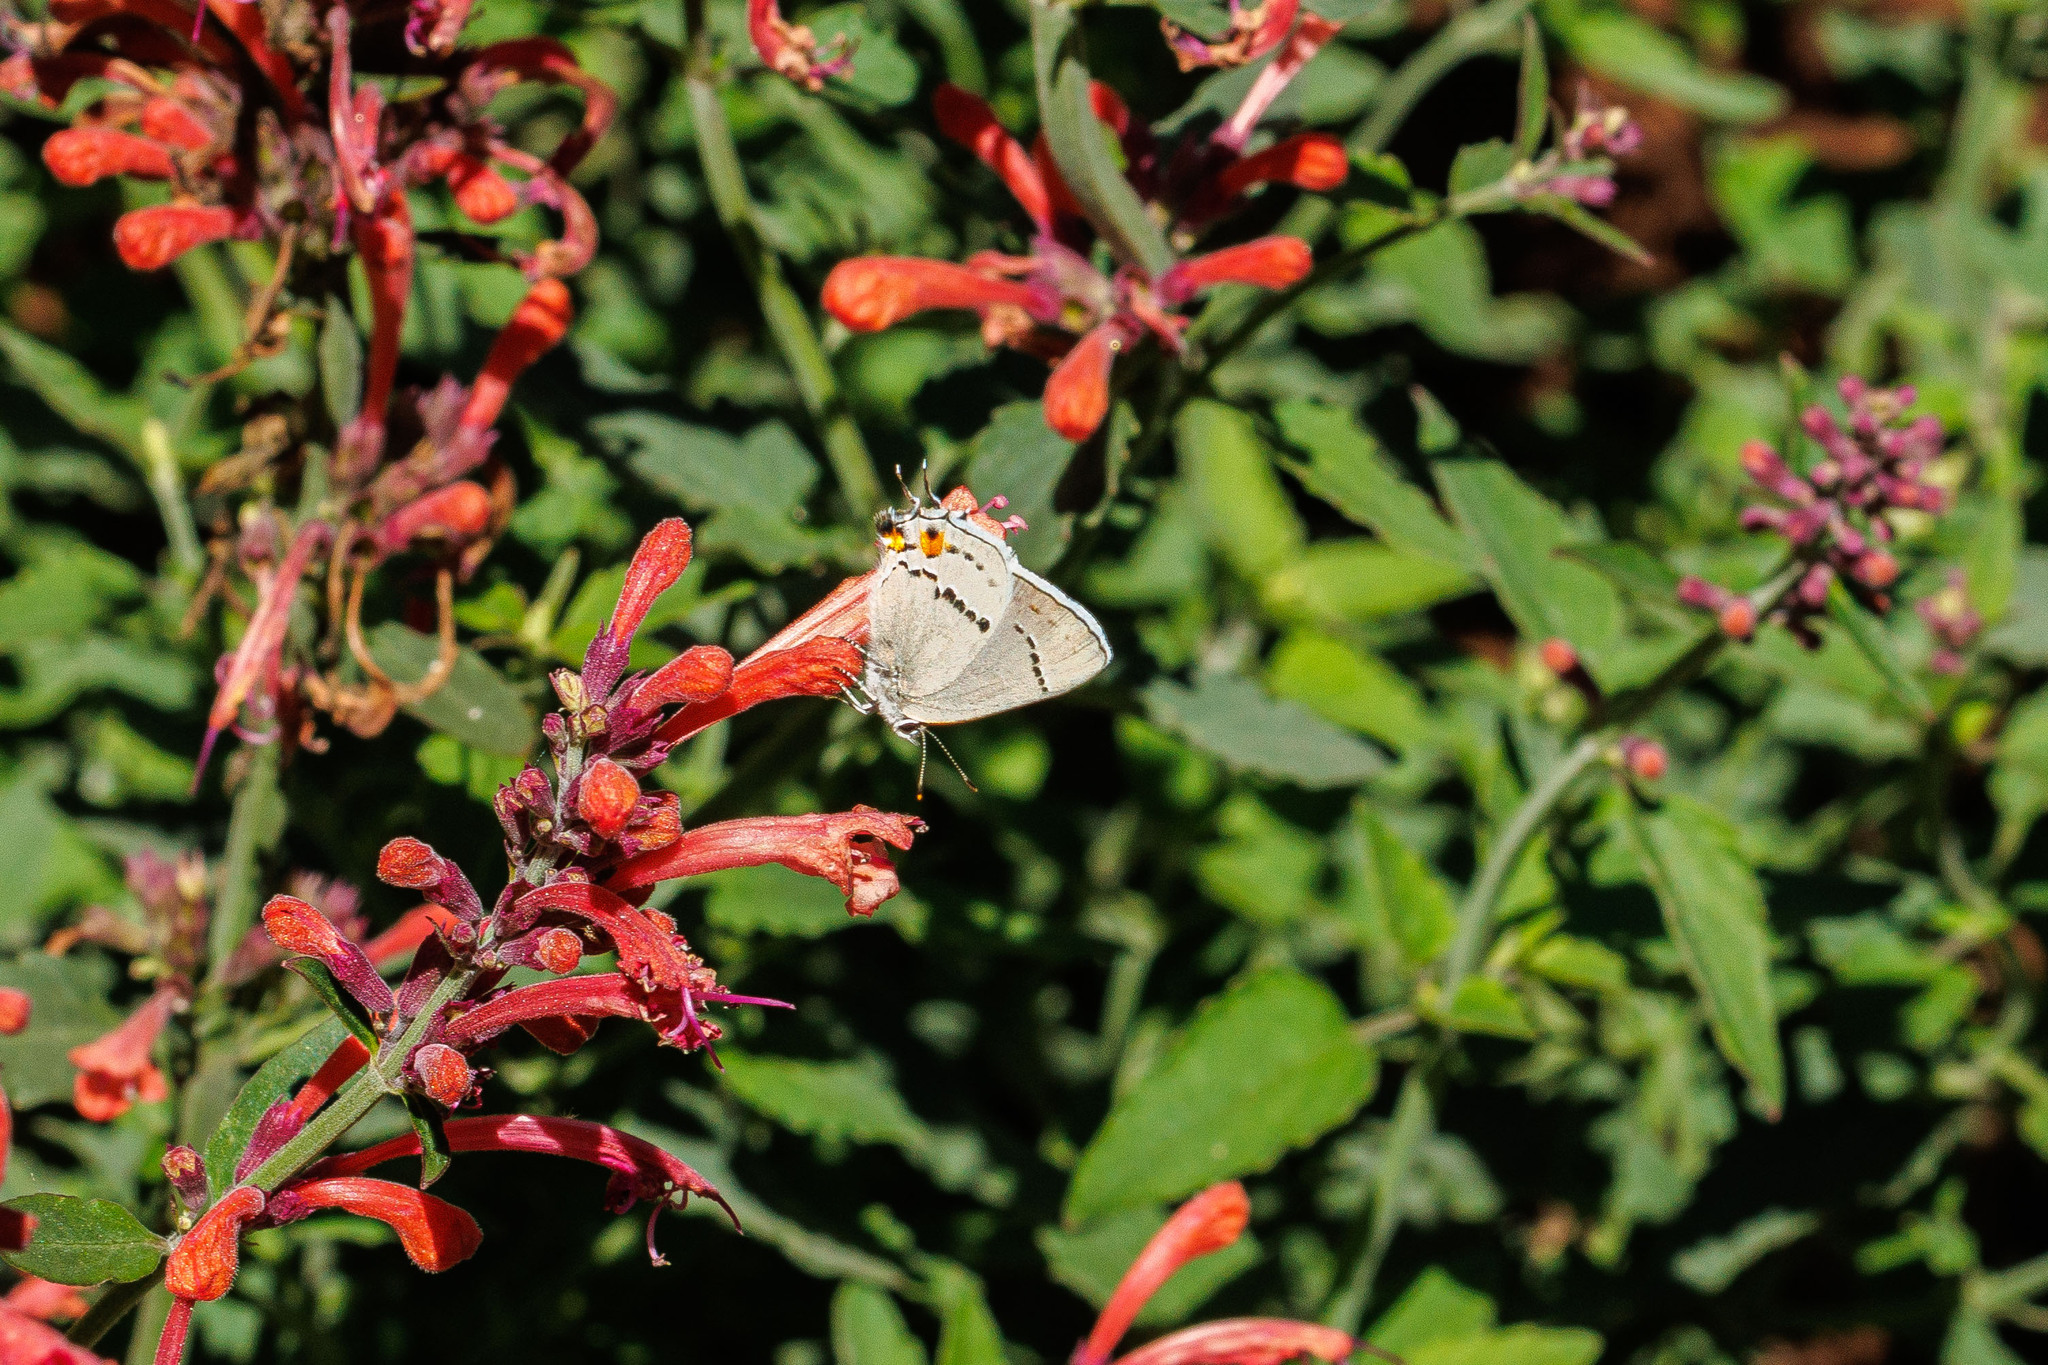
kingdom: Animalia
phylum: Arthropoda
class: Insecta
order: Lepidoptera
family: Lycaenidae
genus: Strymon
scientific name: Strymon melinus
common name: Gray hairstreak
